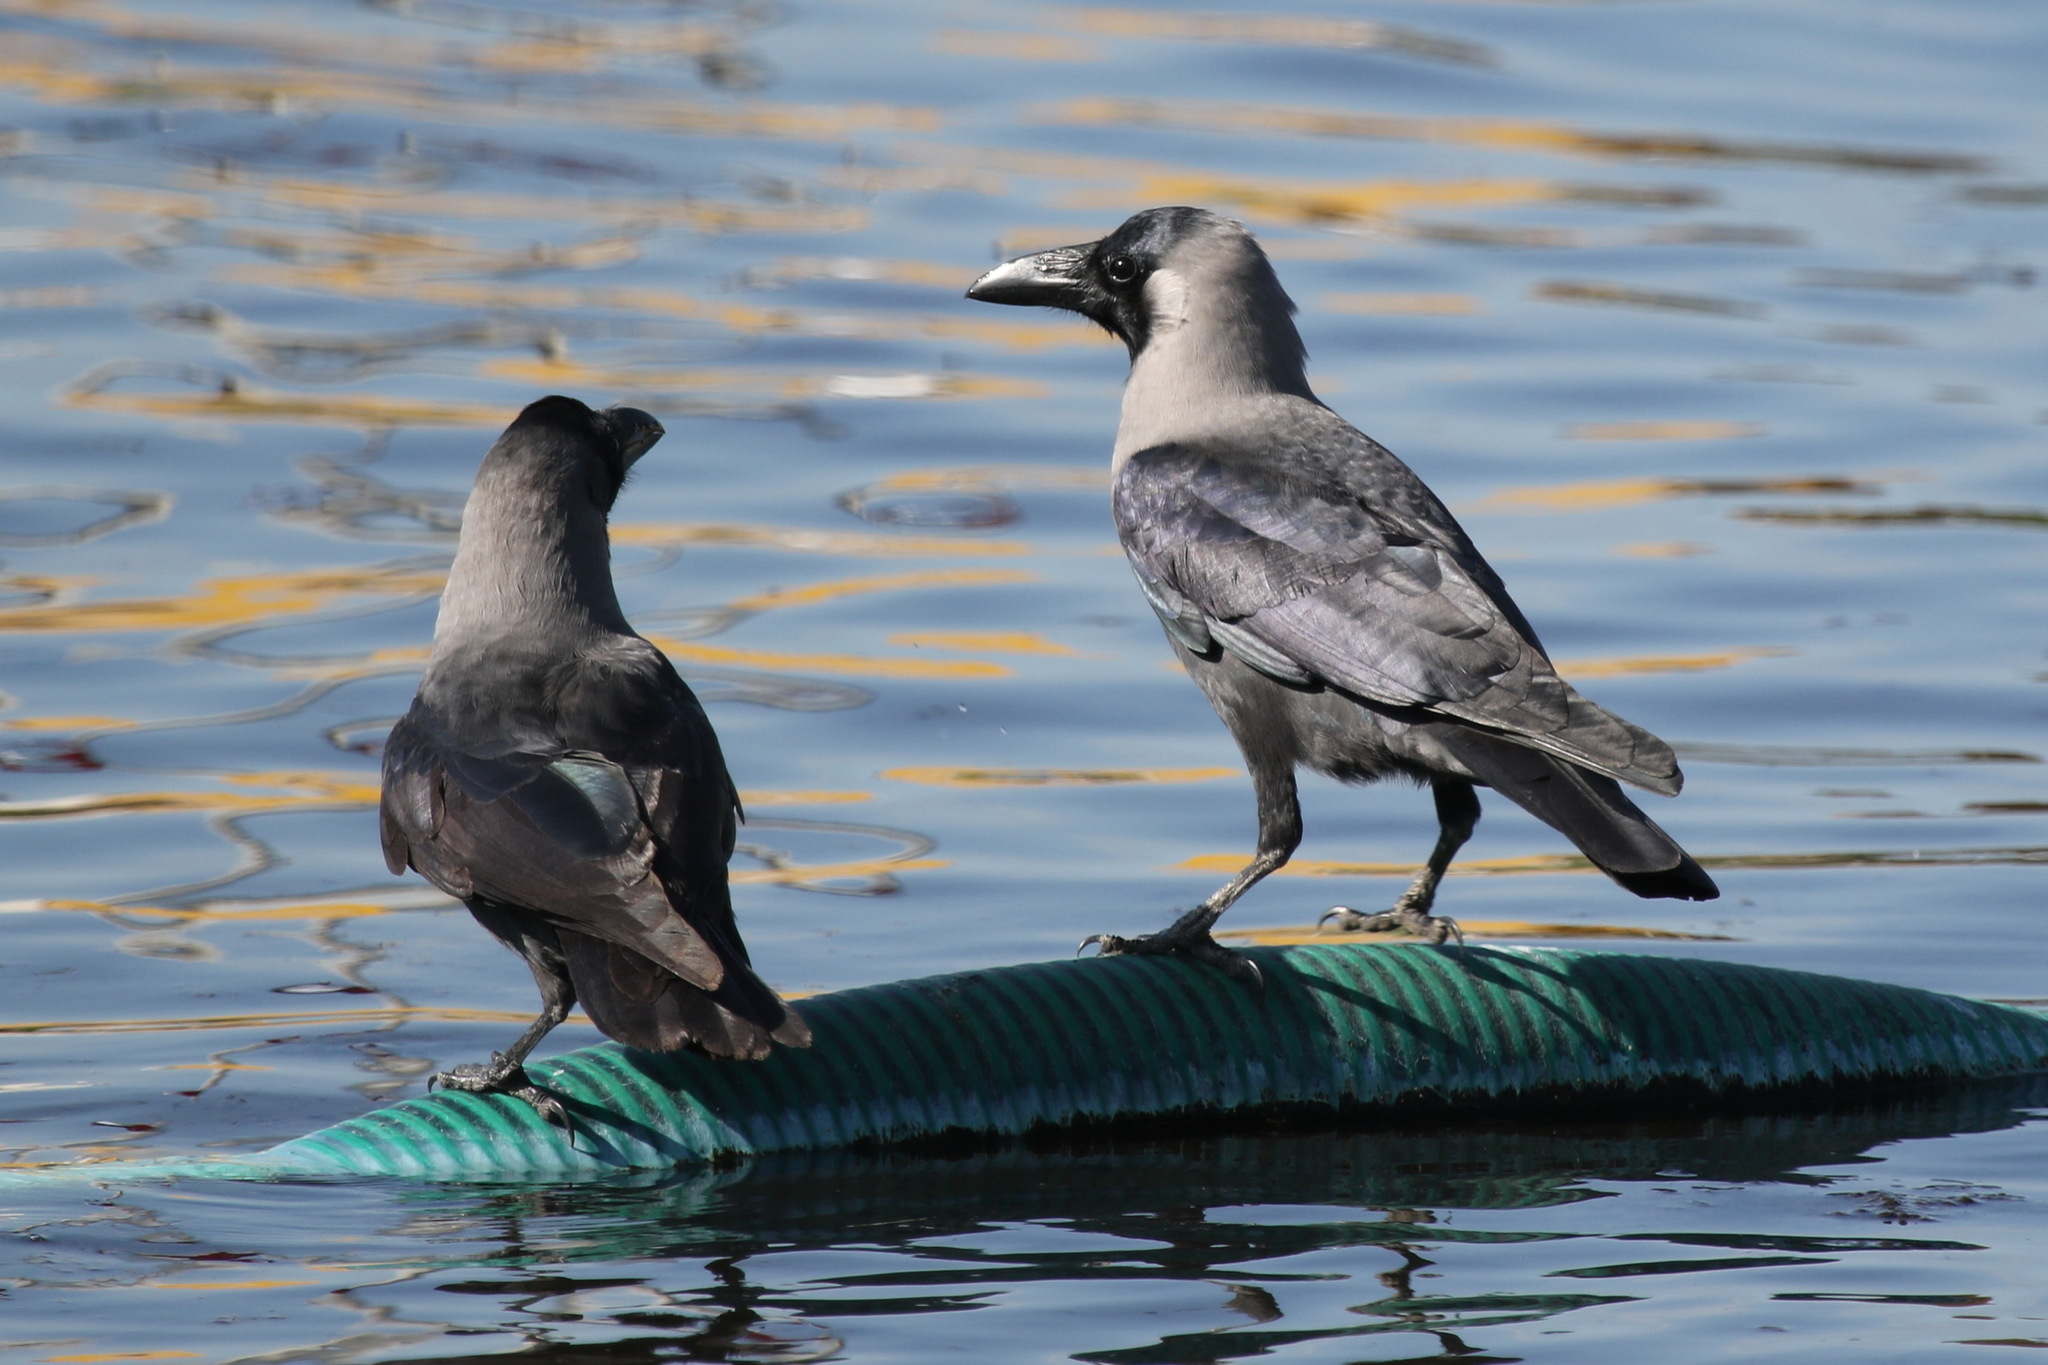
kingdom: Animalia
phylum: Chordata
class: Aves
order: Passeriformes
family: Corvidae
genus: Corvus
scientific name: Corvus splendens
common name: House crow
